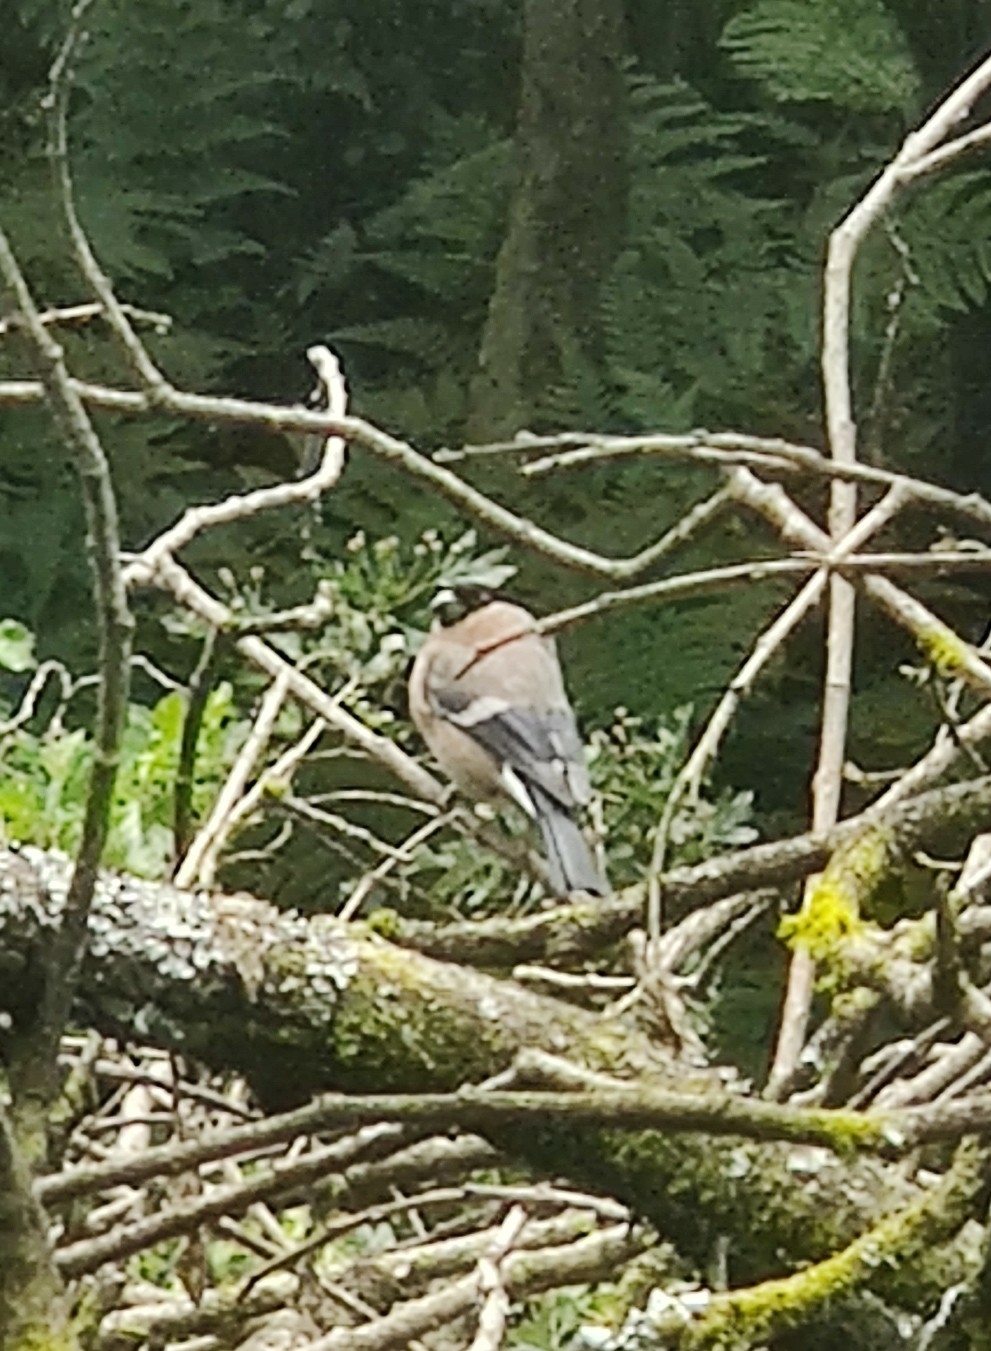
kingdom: Animalia
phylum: Chordata
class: Aves
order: Passeriformes
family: Fringillidae
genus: Pyrrhula
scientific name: Pyrrhula pyrrhula
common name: Eurasian bullfinch
